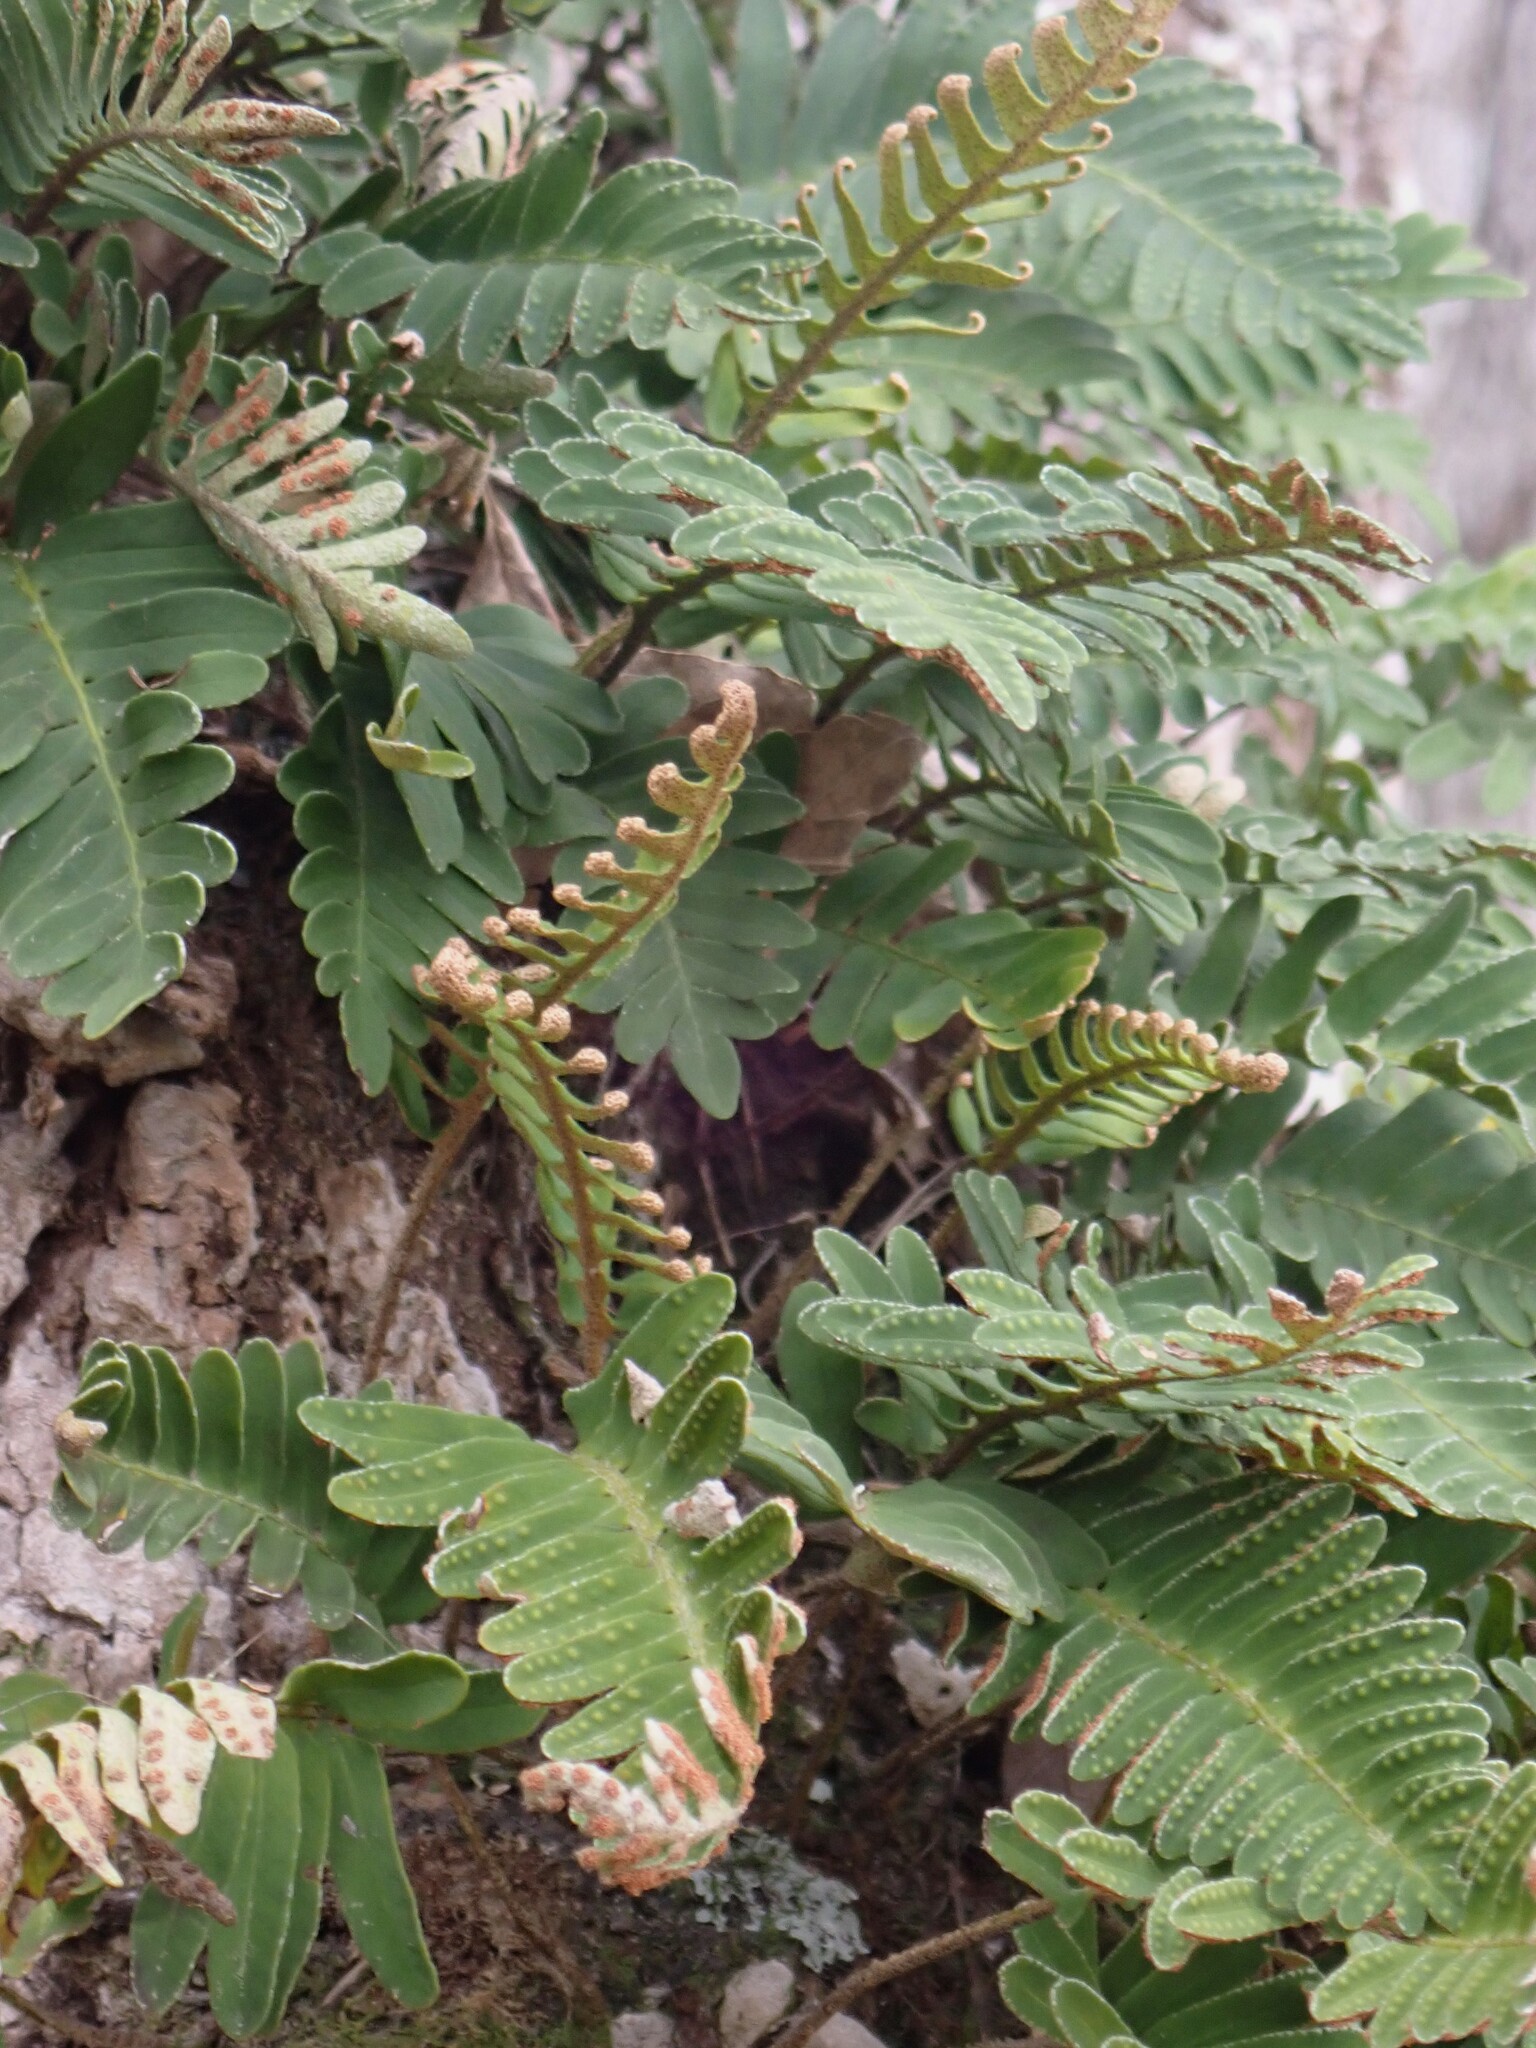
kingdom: Plantae
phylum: Tracheophyta
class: Polypodiopsida
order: Polypodiales
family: Polypodiaceae
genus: Pleopeltis
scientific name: Pleopeltis michauxiana
